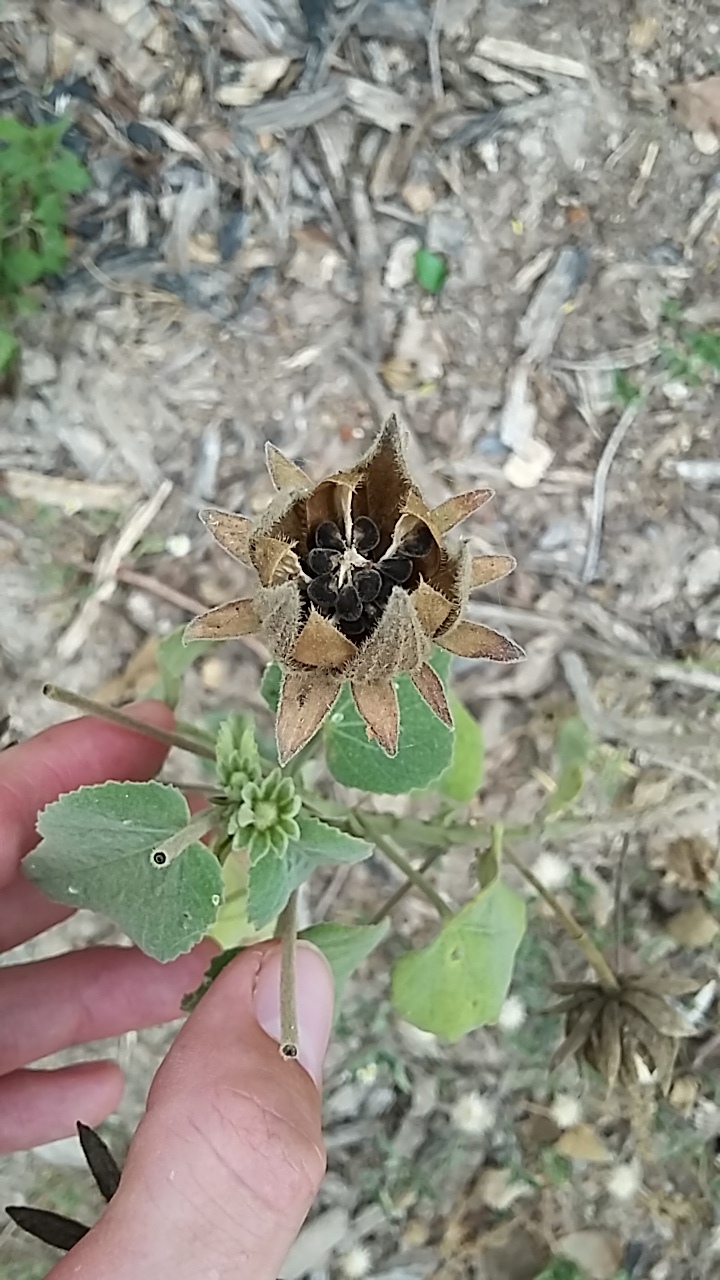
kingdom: Plantae
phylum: Tracheophyta
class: Magnoliopsida
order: Malvales
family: Malvaceae
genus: Hibiscus
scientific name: Hibiscus martianus
